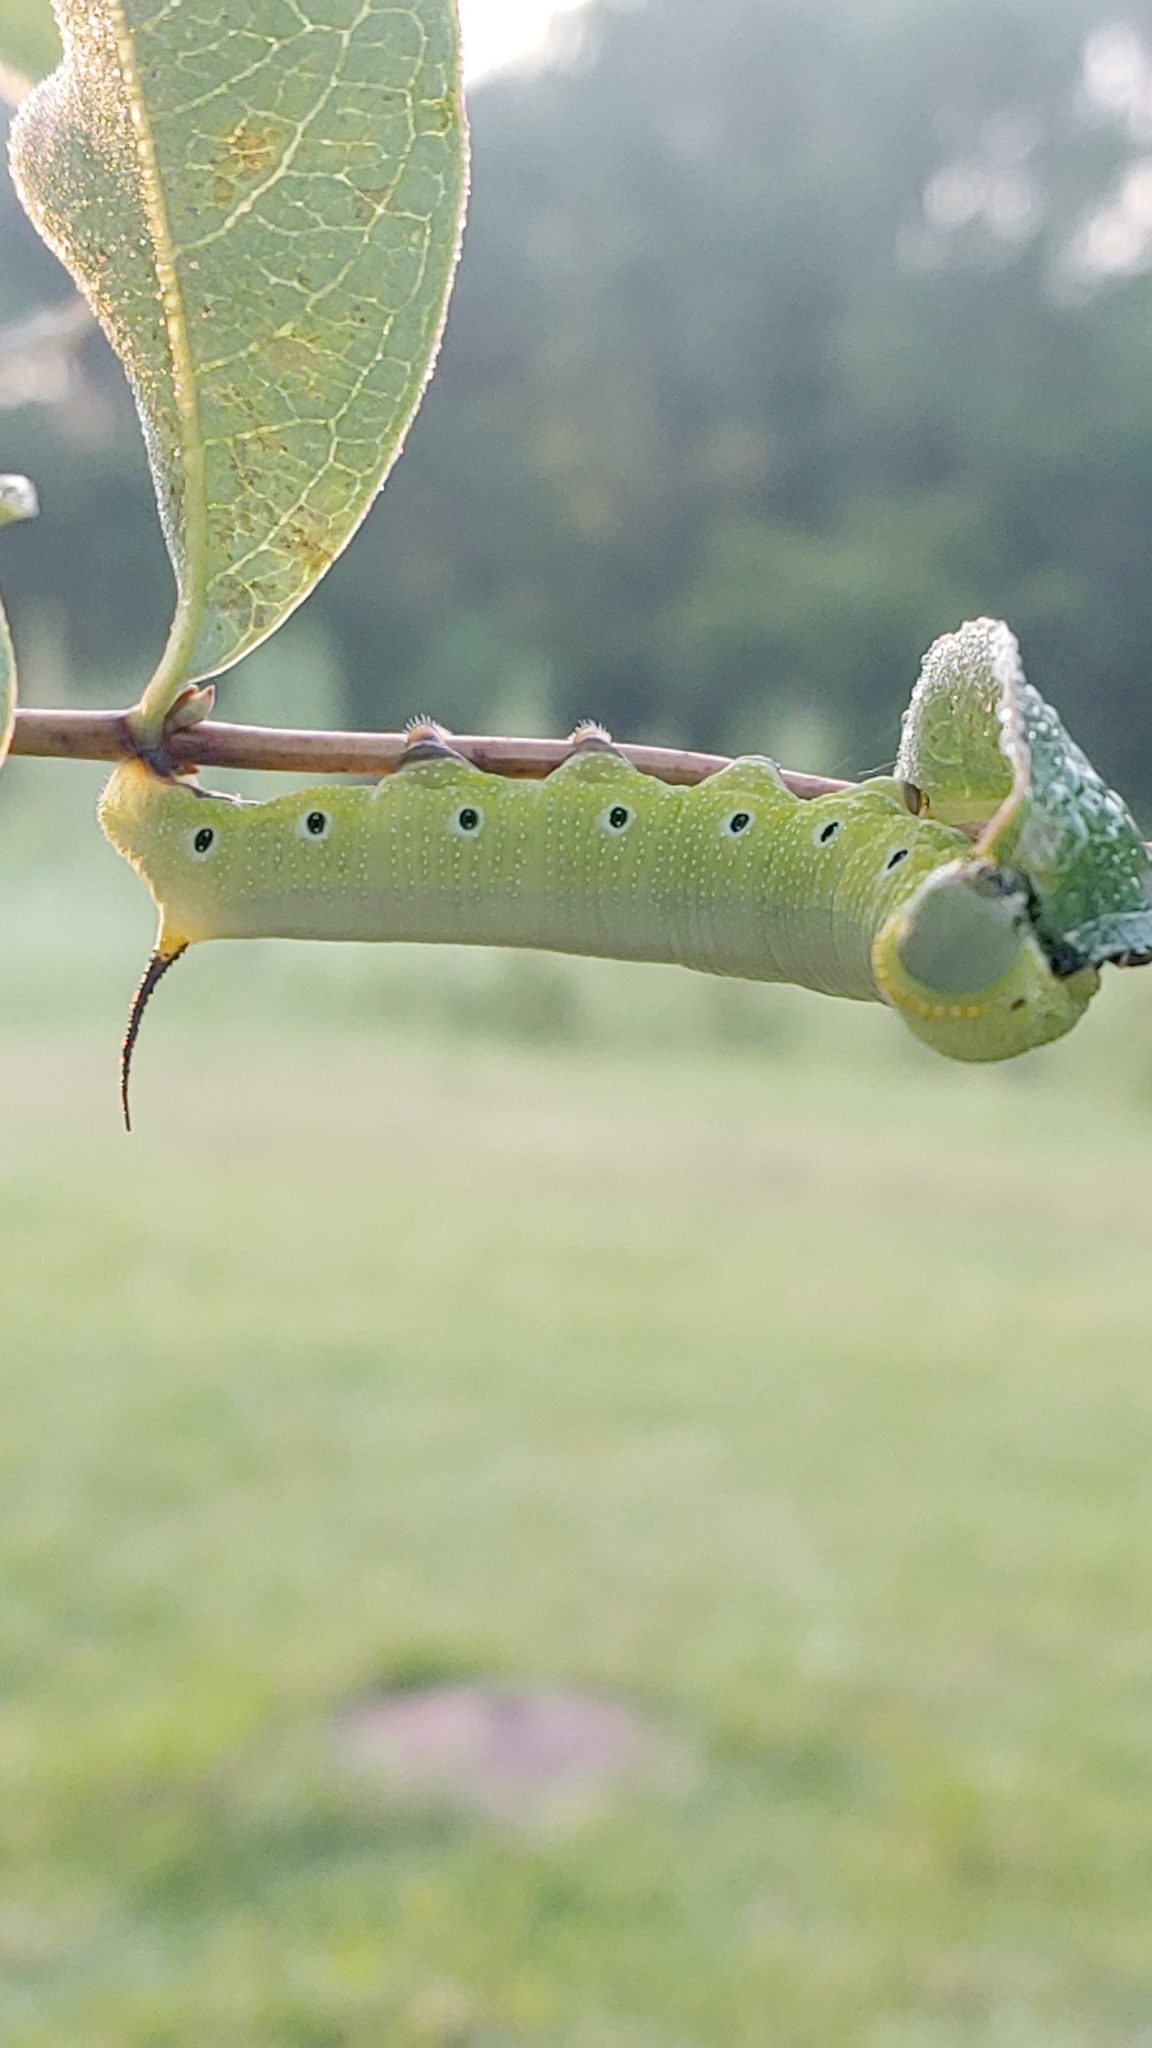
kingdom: Animalia
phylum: Arthropoda
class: Insecta
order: Lepidoptera
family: Sphingidae
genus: Hemaris
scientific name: Hemaris diffinis
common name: Bumblebee moth
